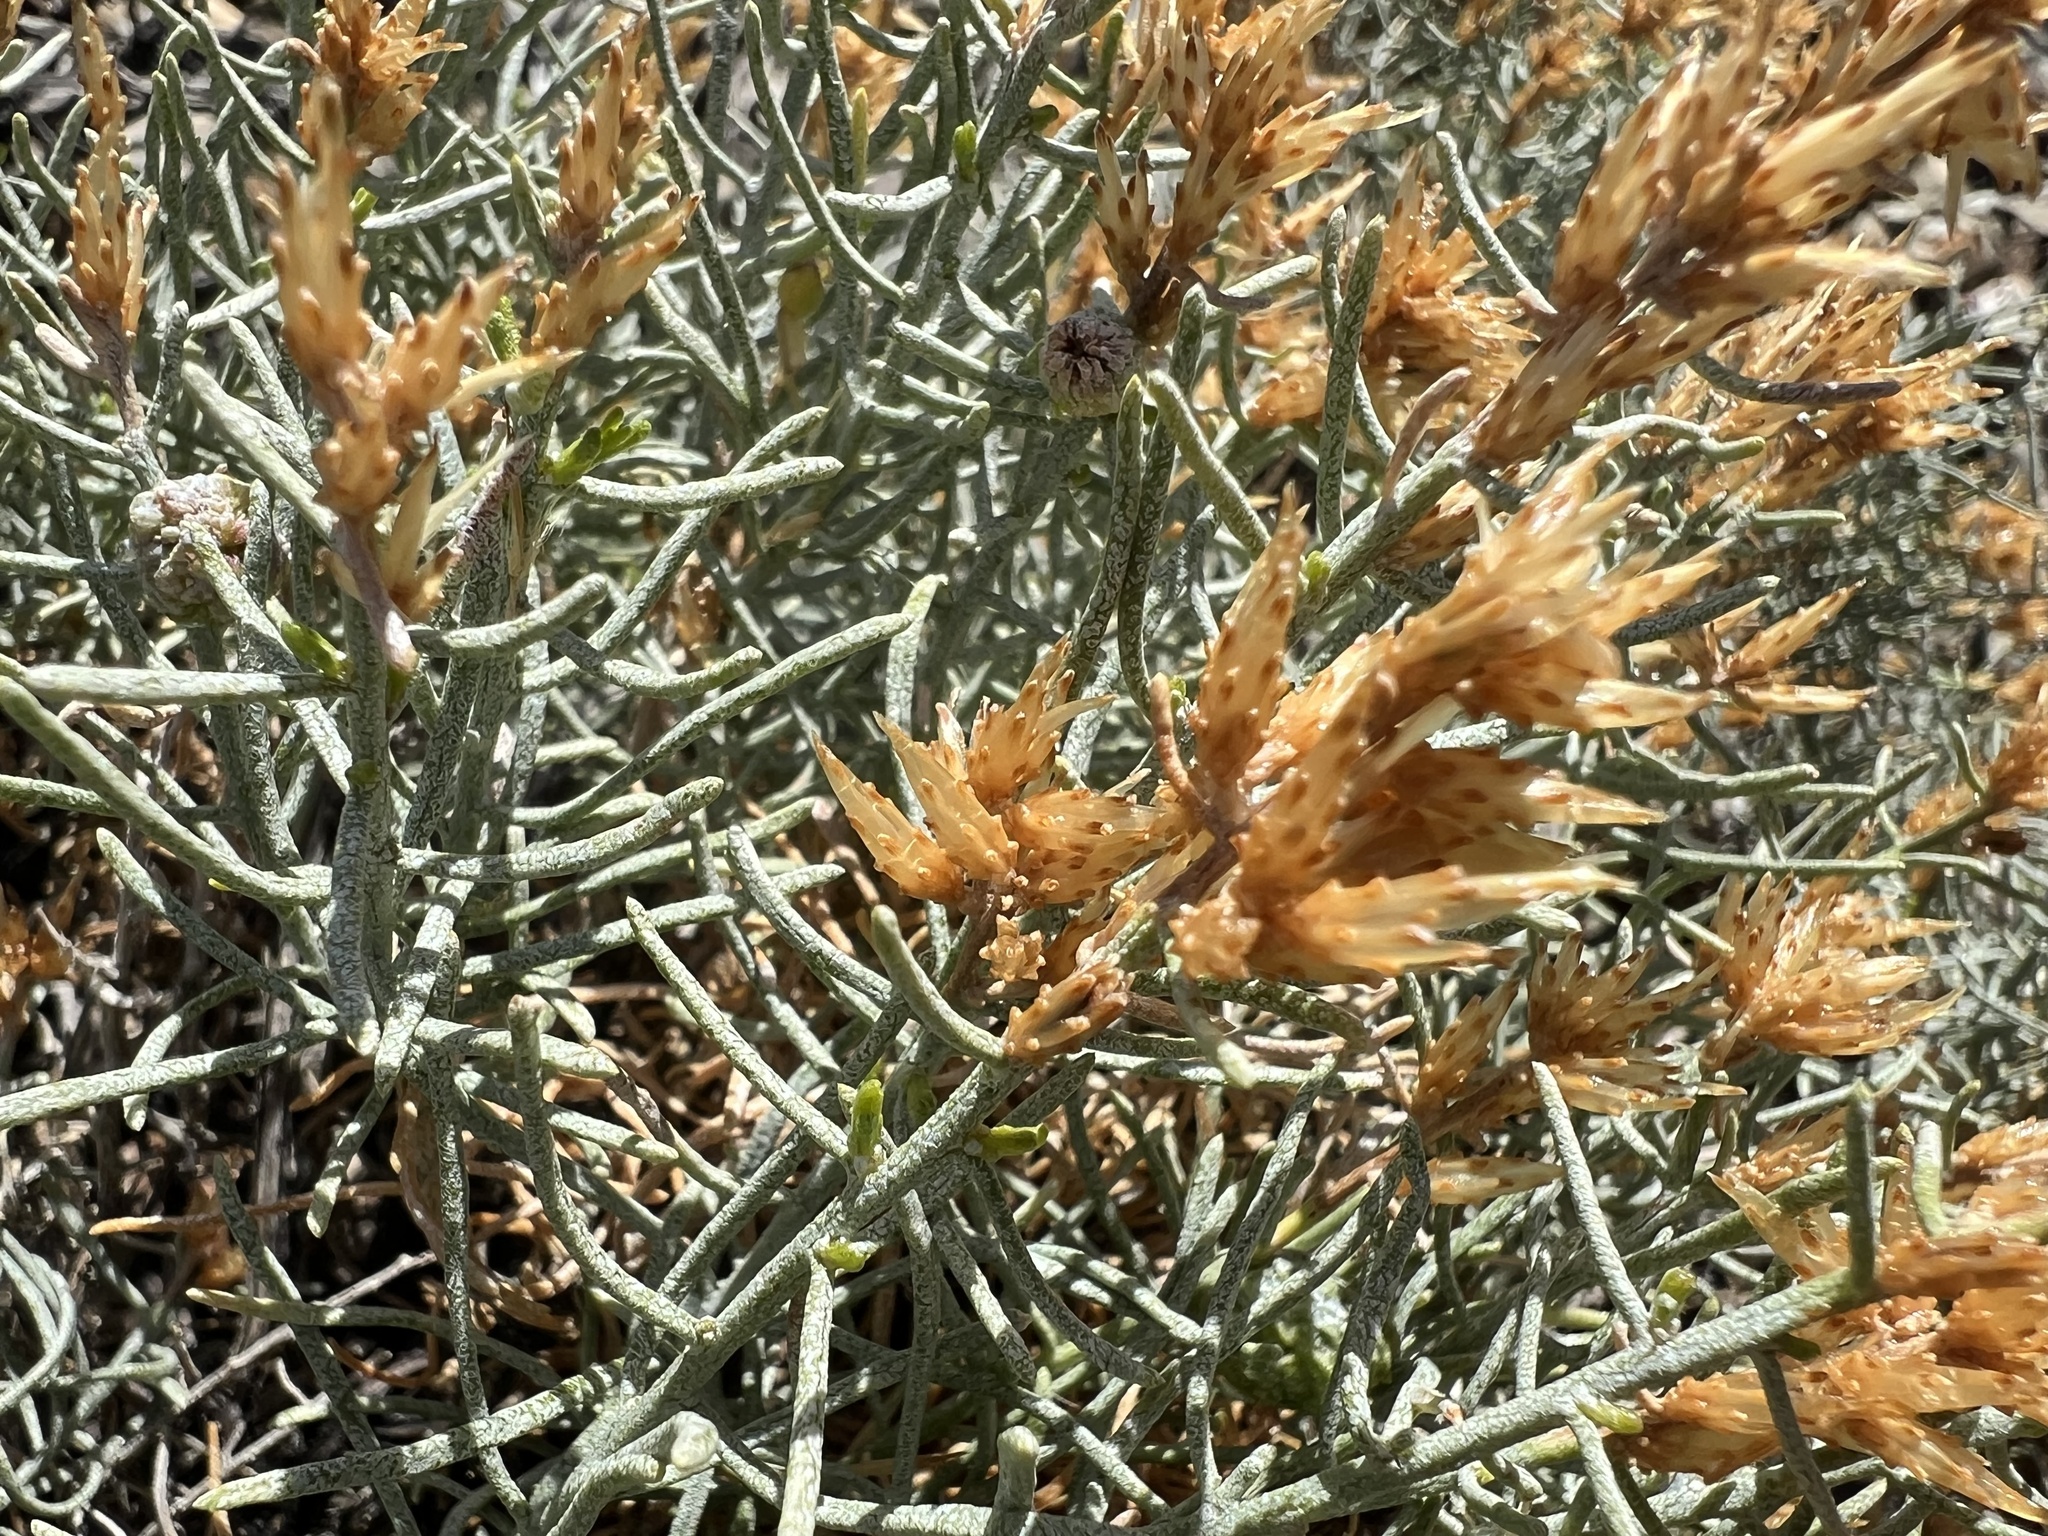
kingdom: Plantae
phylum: Tracheophyta
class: Magnoliopsida
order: Asterales
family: Asteraceae
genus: Ericameria
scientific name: Ericameria teretifolia
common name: Round-leaf rabbitbrush
